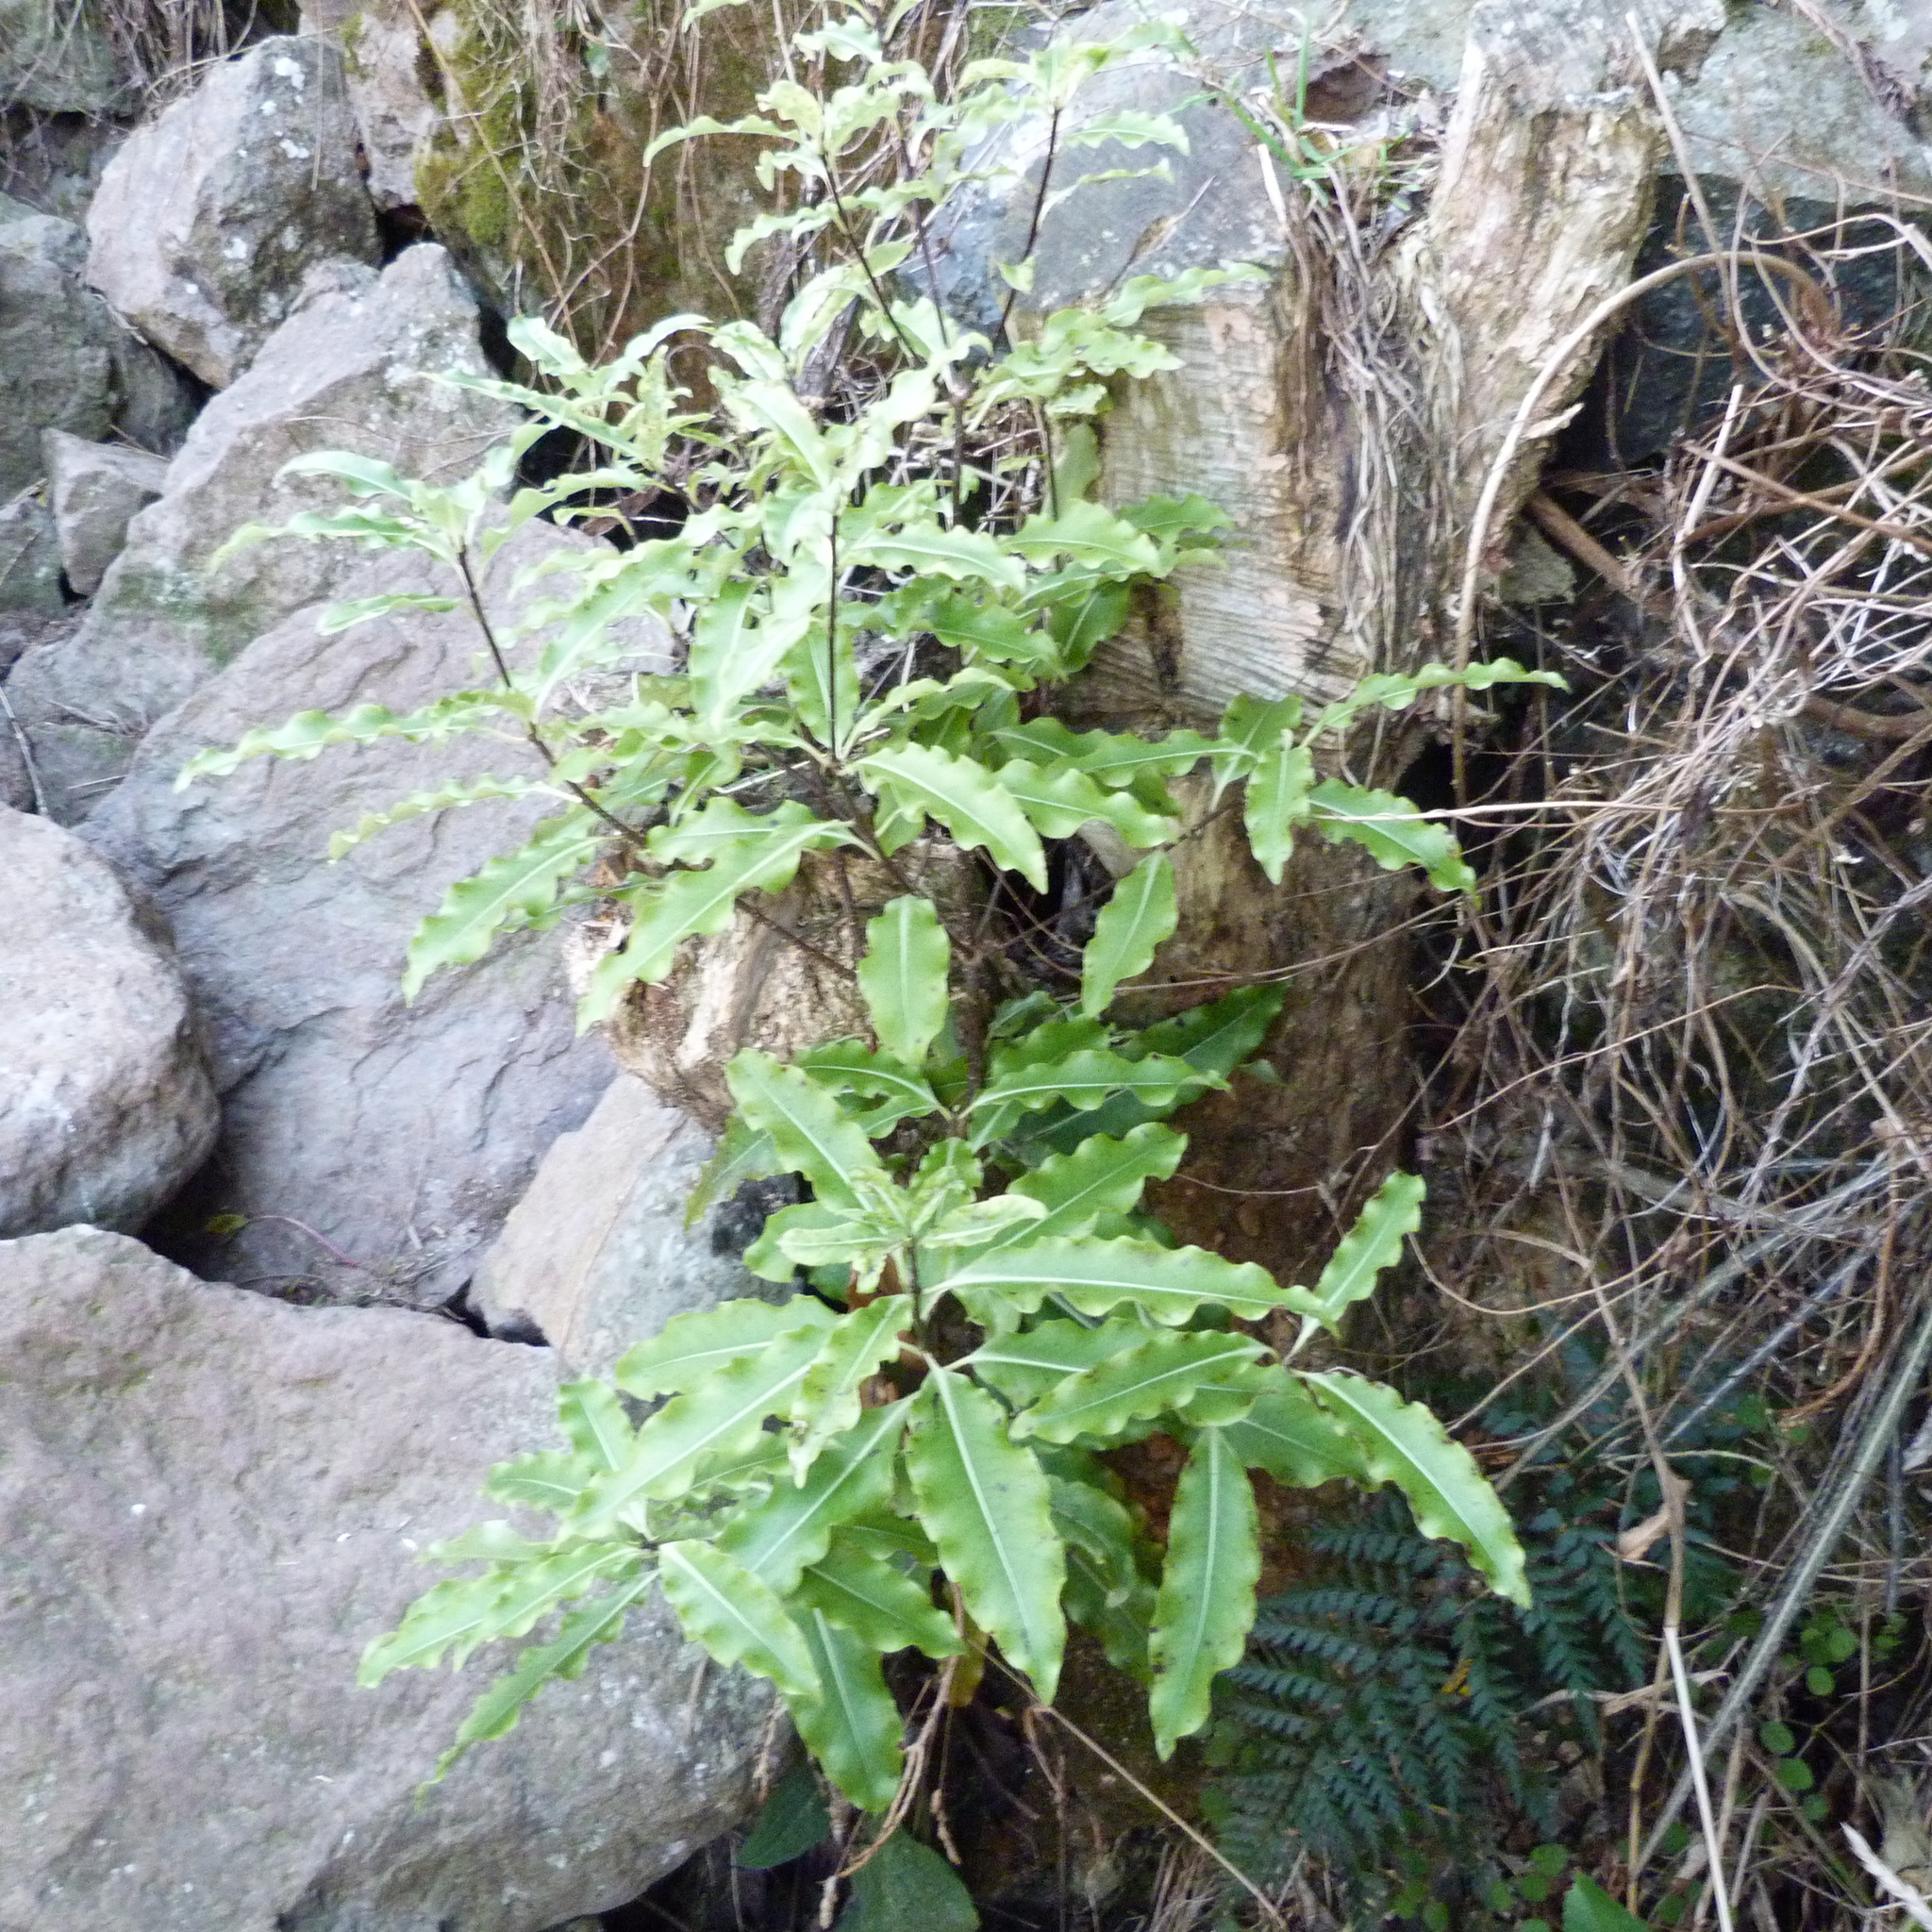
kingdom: Plantae
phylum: Tracheophyta
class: Magnoliopsida
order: Apiales
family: Pittosporaceae
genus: Pittosporum
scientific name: Pittosporum eugenioides
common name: Lemonwood
